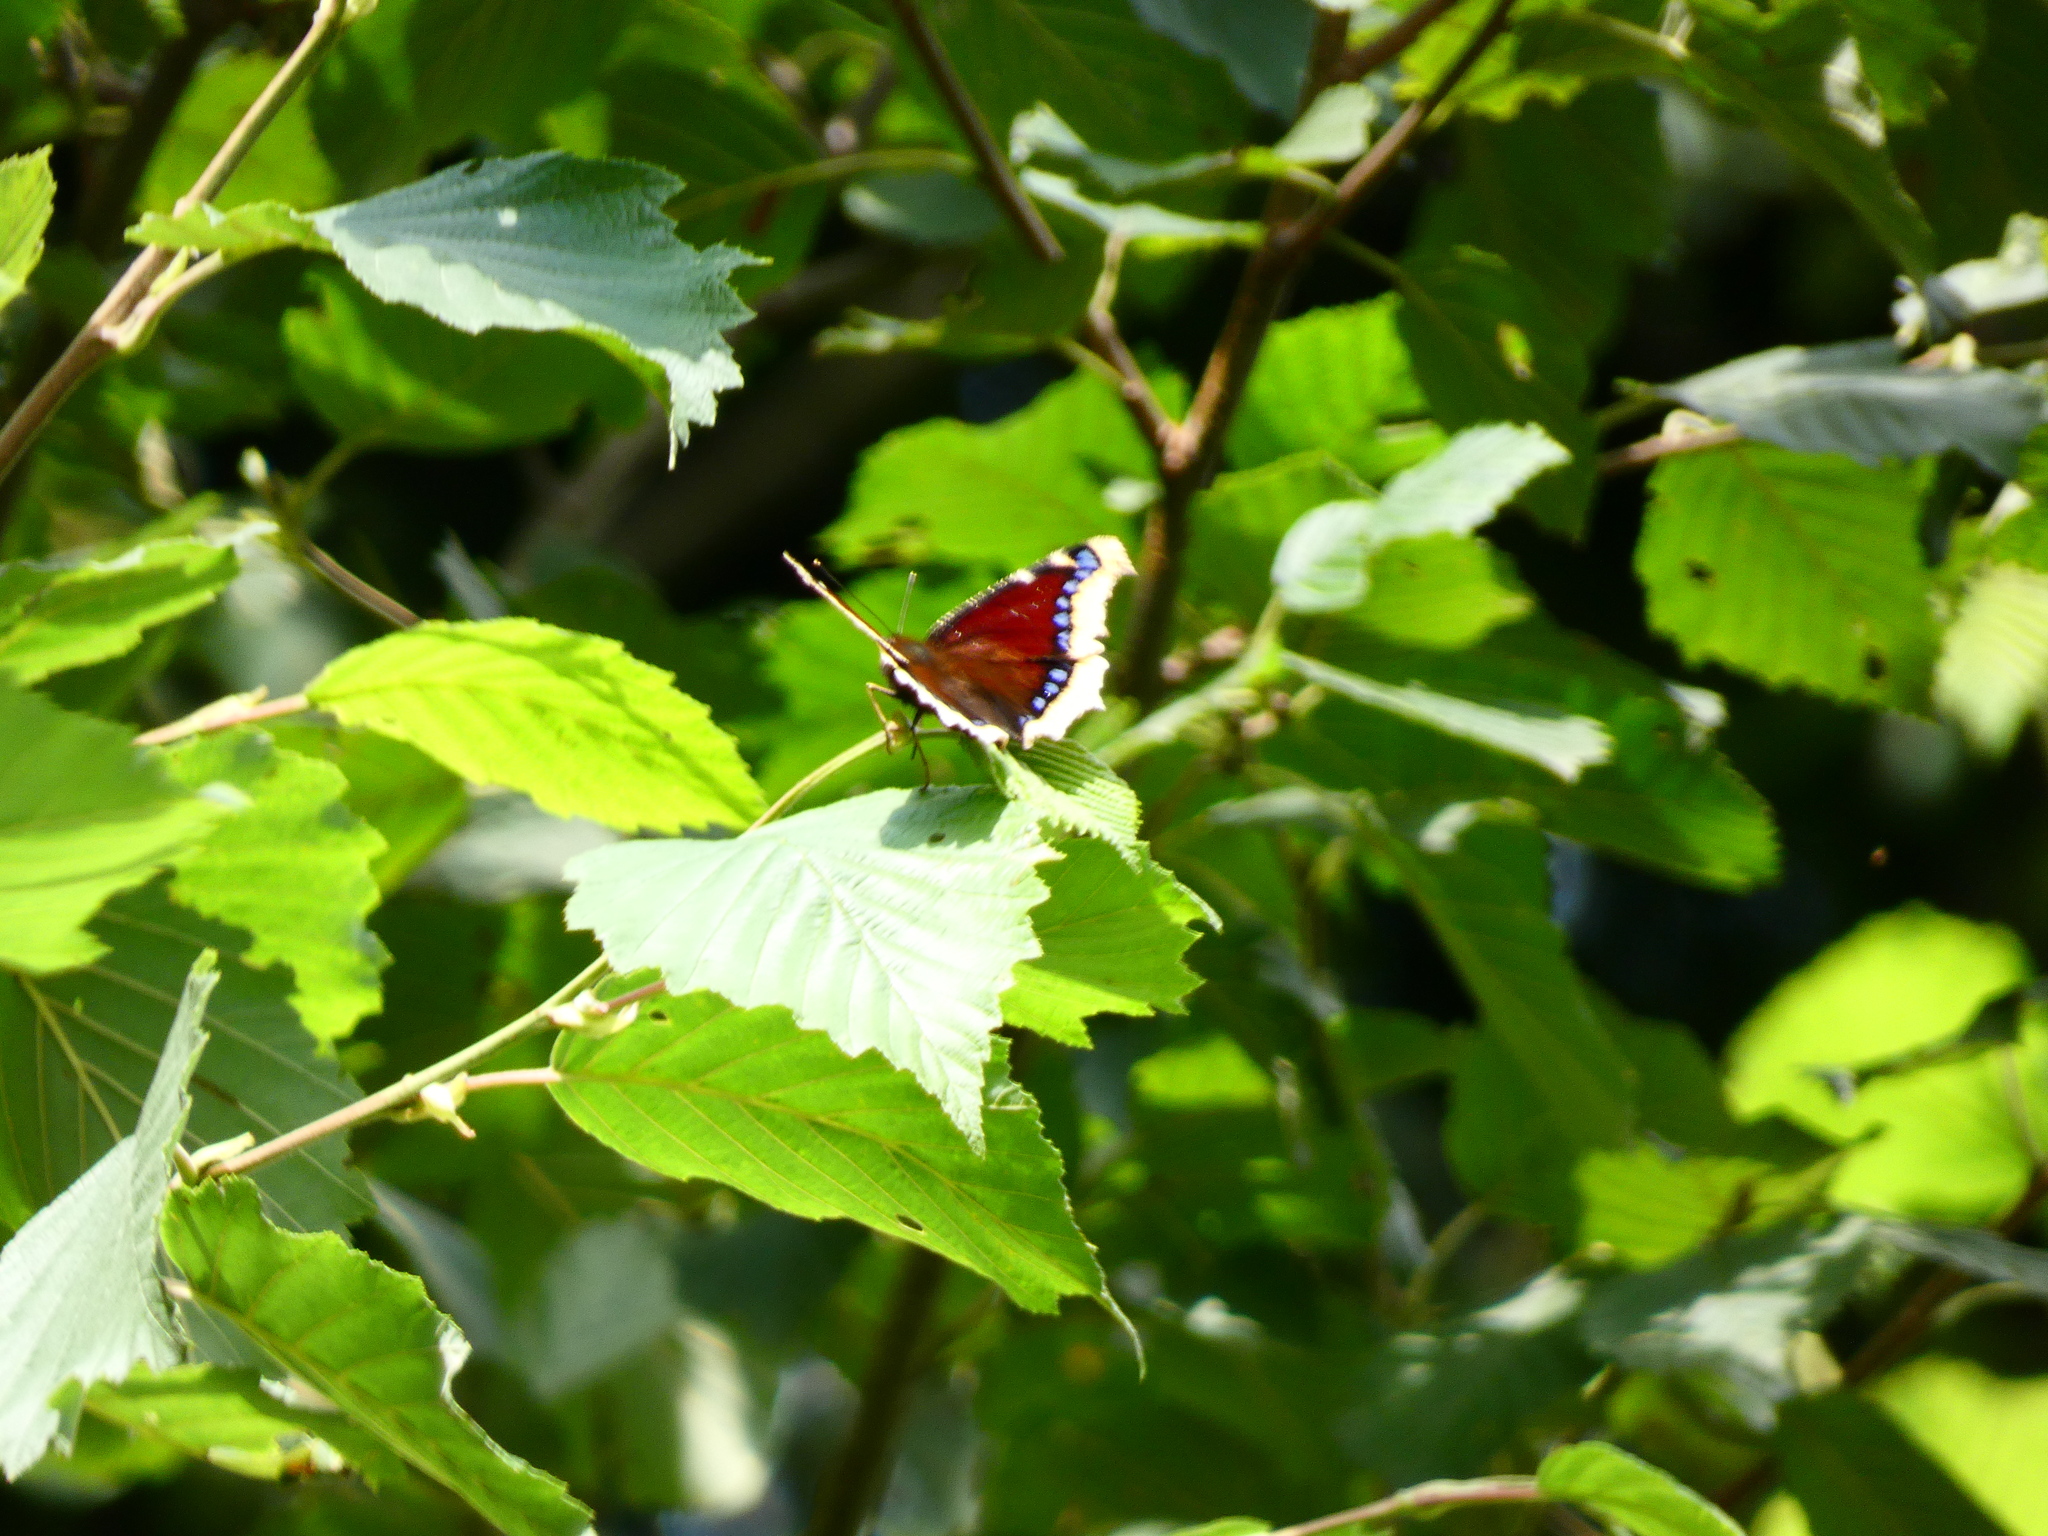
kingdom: Animalia
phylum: Arthropoda
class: Insecta
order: Lepidoptera
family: Nymphalidae
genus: Nymphalis
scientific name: Nymphalis antiopa
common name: Camberwell beauty
